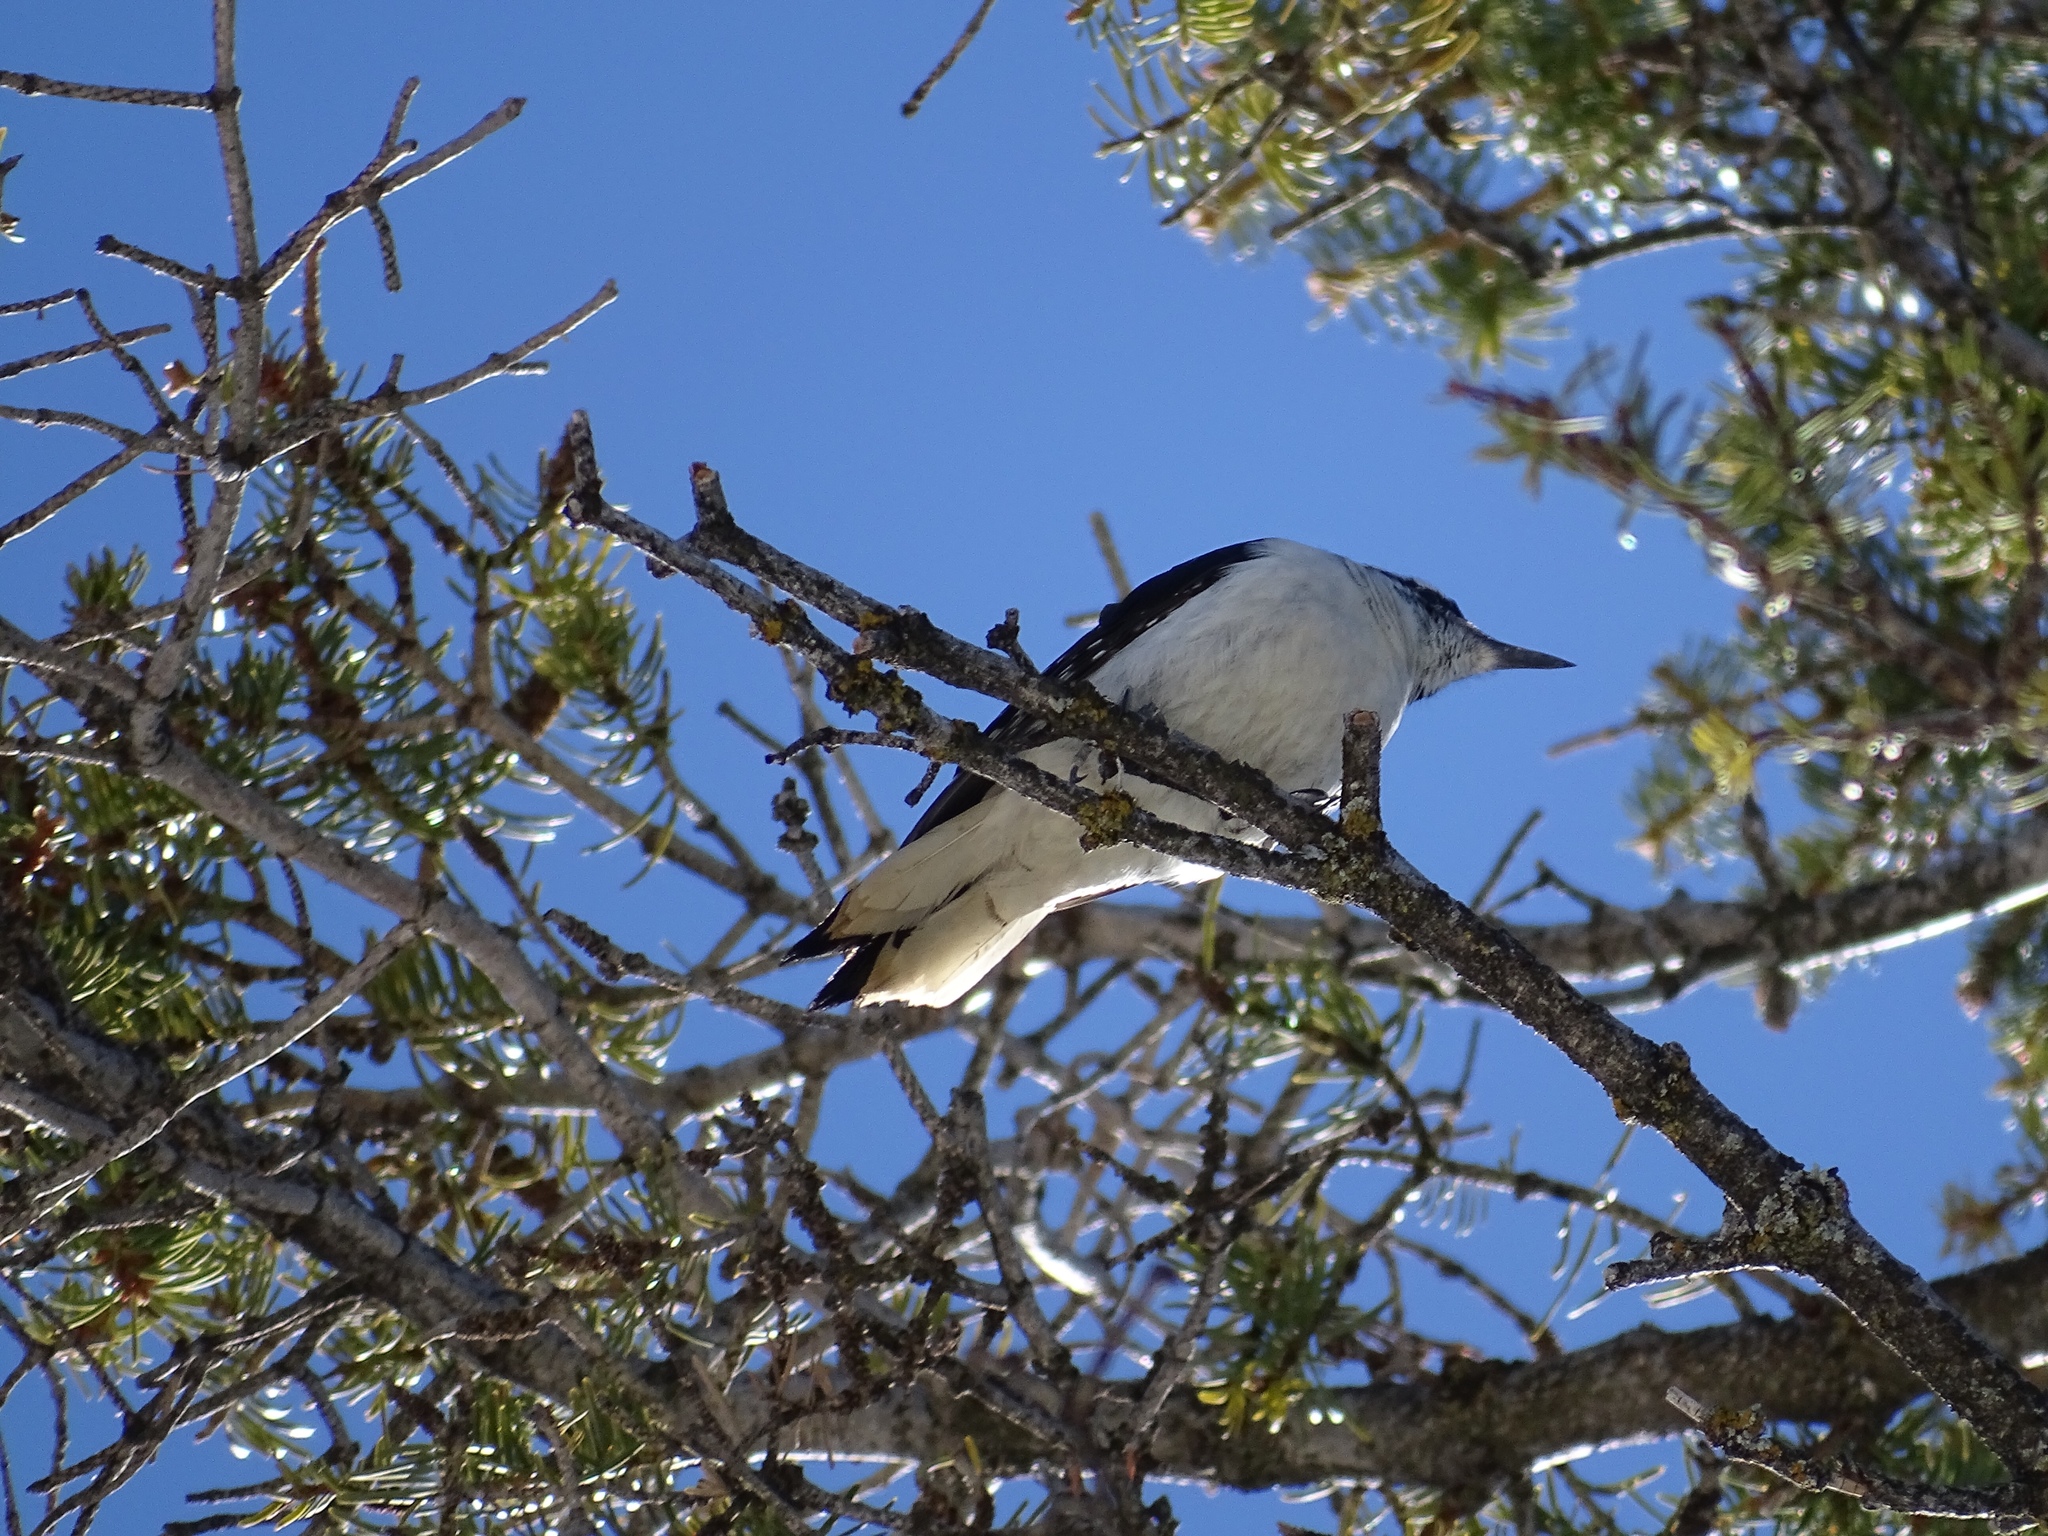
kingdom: Animalia
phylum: Chordata
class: Aves
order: Piciformes
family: Picidae
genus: Leuconotopicus
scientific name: Leuconotopicus villosus
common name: Hairy woodpecker
